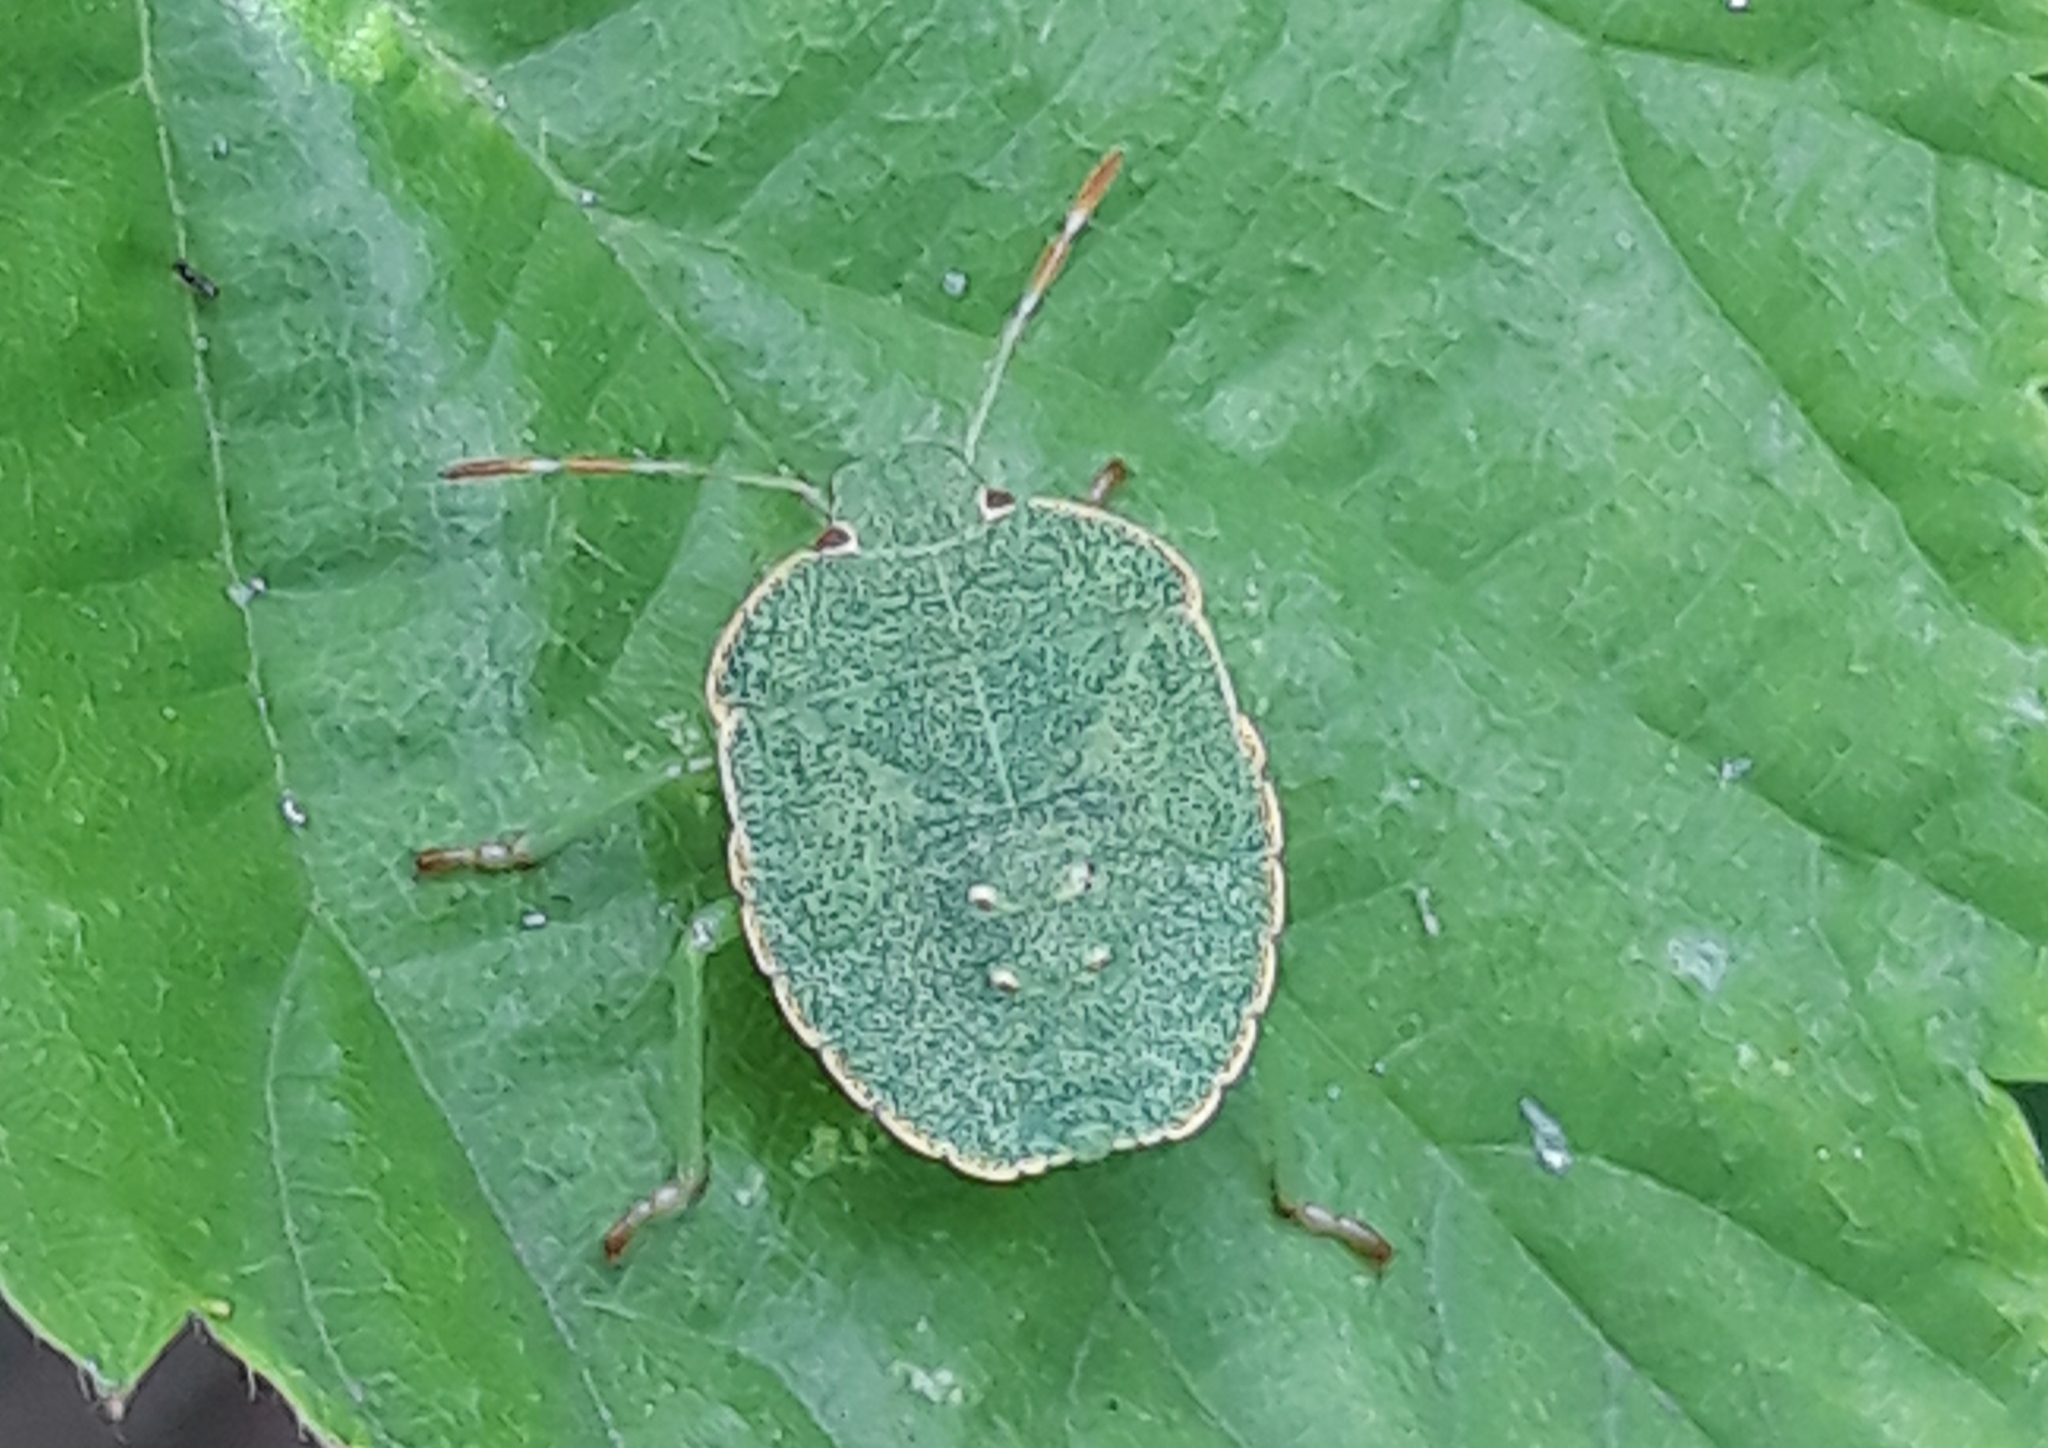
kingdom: Animalia
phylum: Arthropoda
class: Insecta
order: Hemiptera
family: Pentatomidae
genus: Palomena
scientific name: Palomena prasina
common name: Green shieldbug
